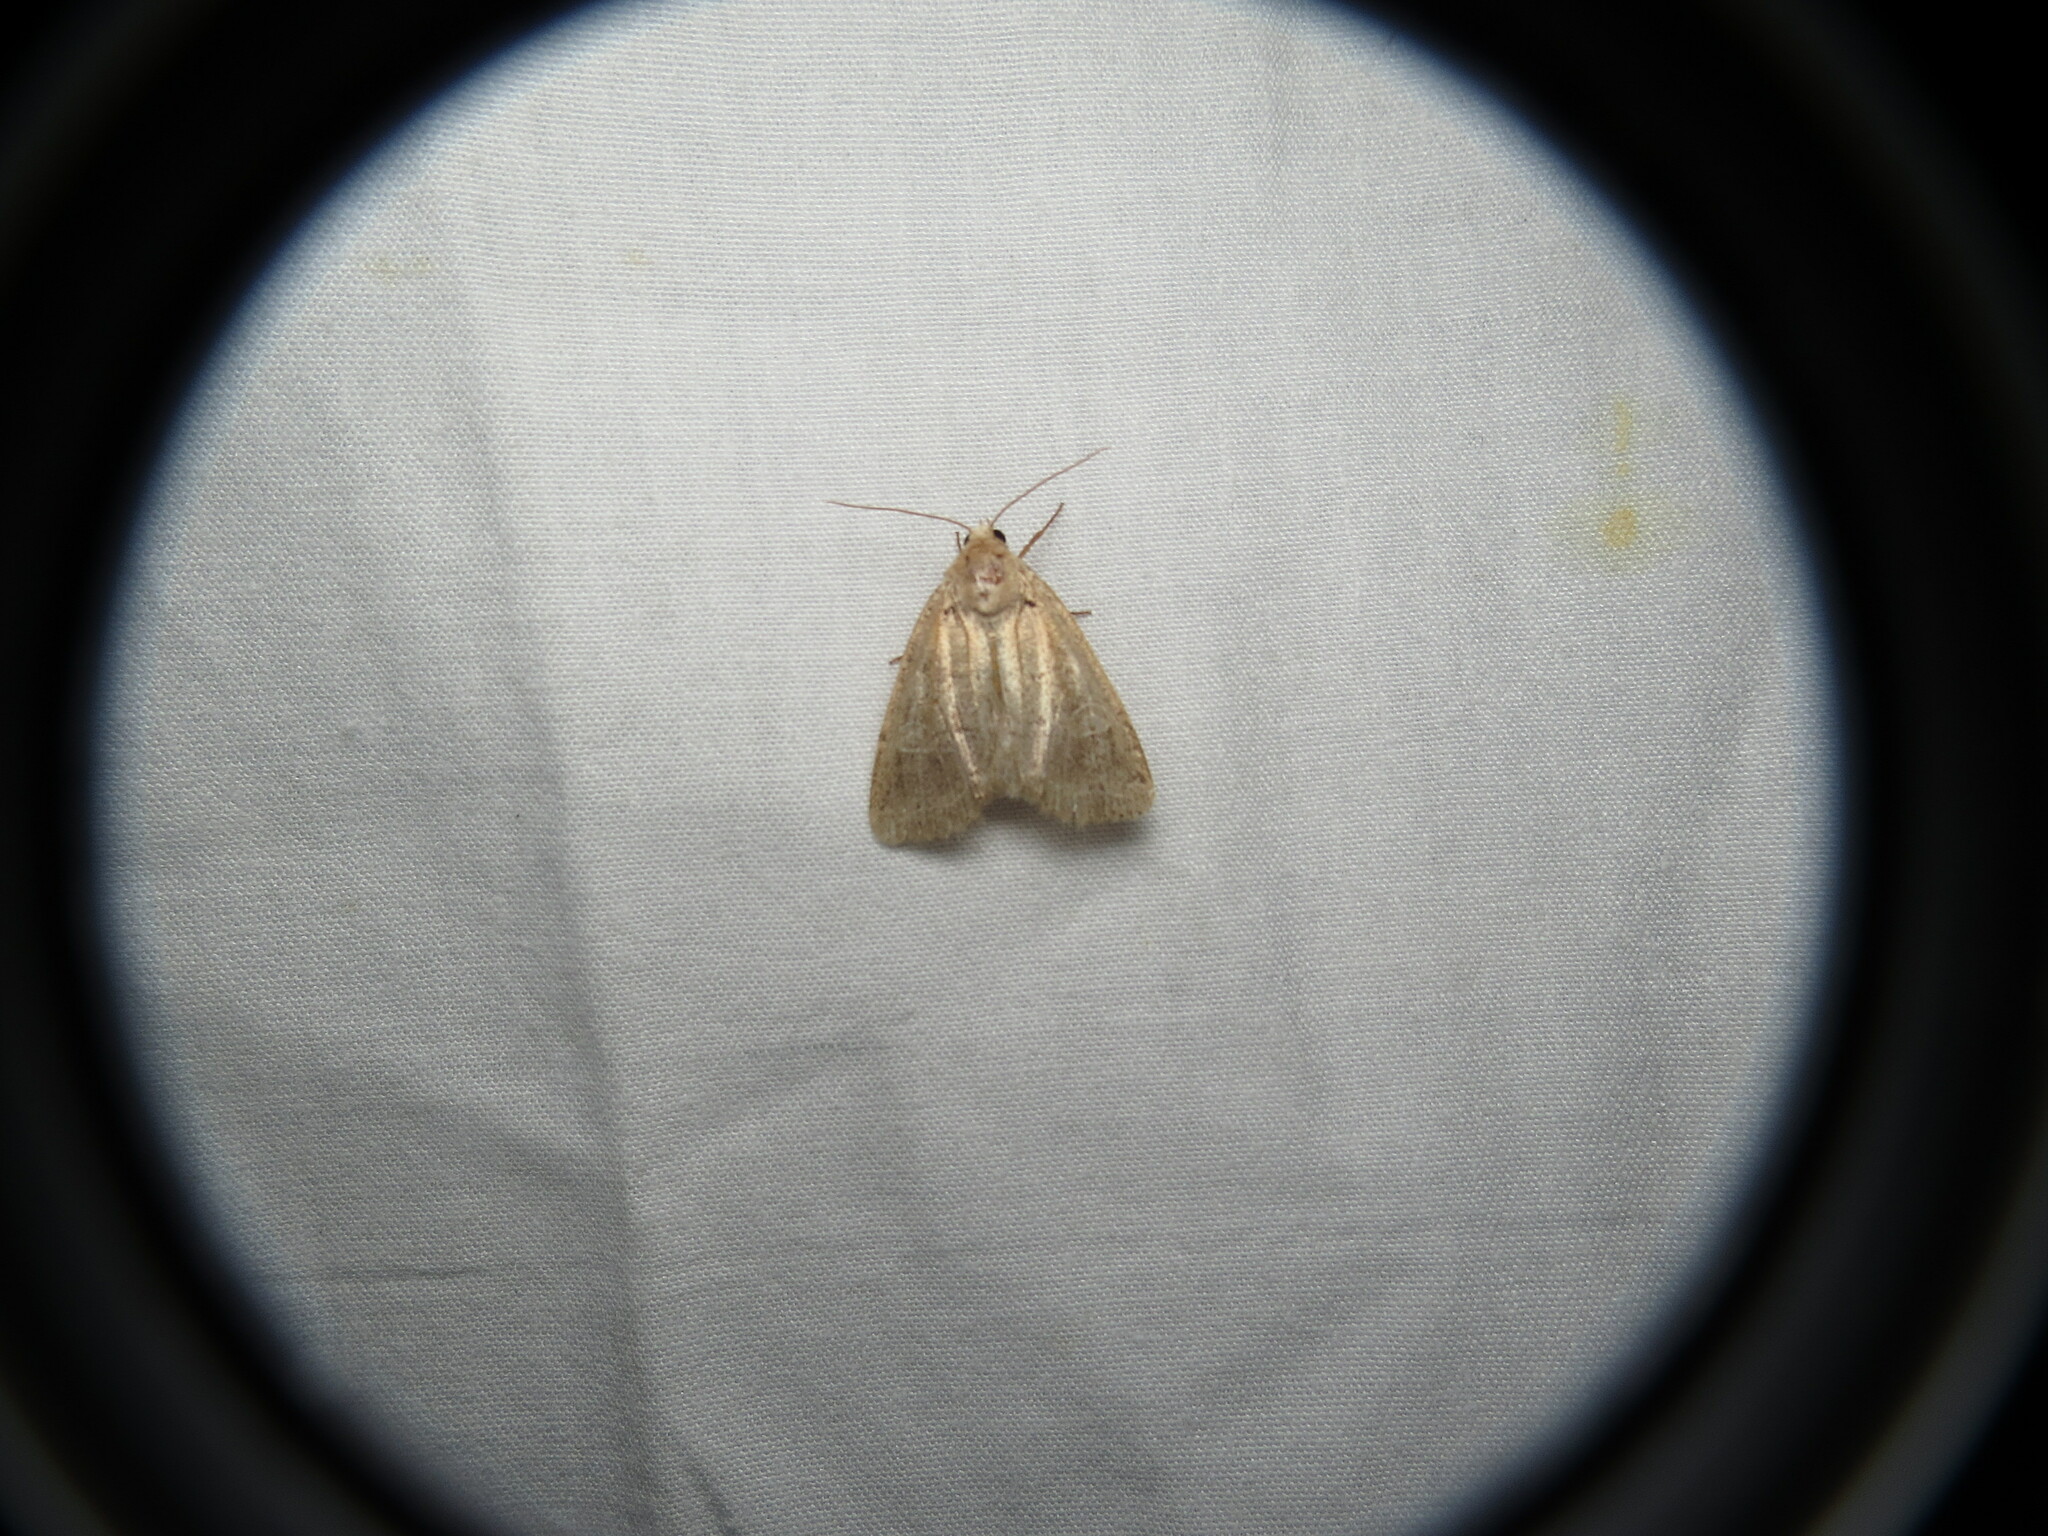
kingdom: Animalia
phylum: Arthropoda
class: Insecta
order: Lepidoptera
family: Noctuidae
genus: Protodeltote
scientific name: Protodeltote albidula
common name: Pale glyph
